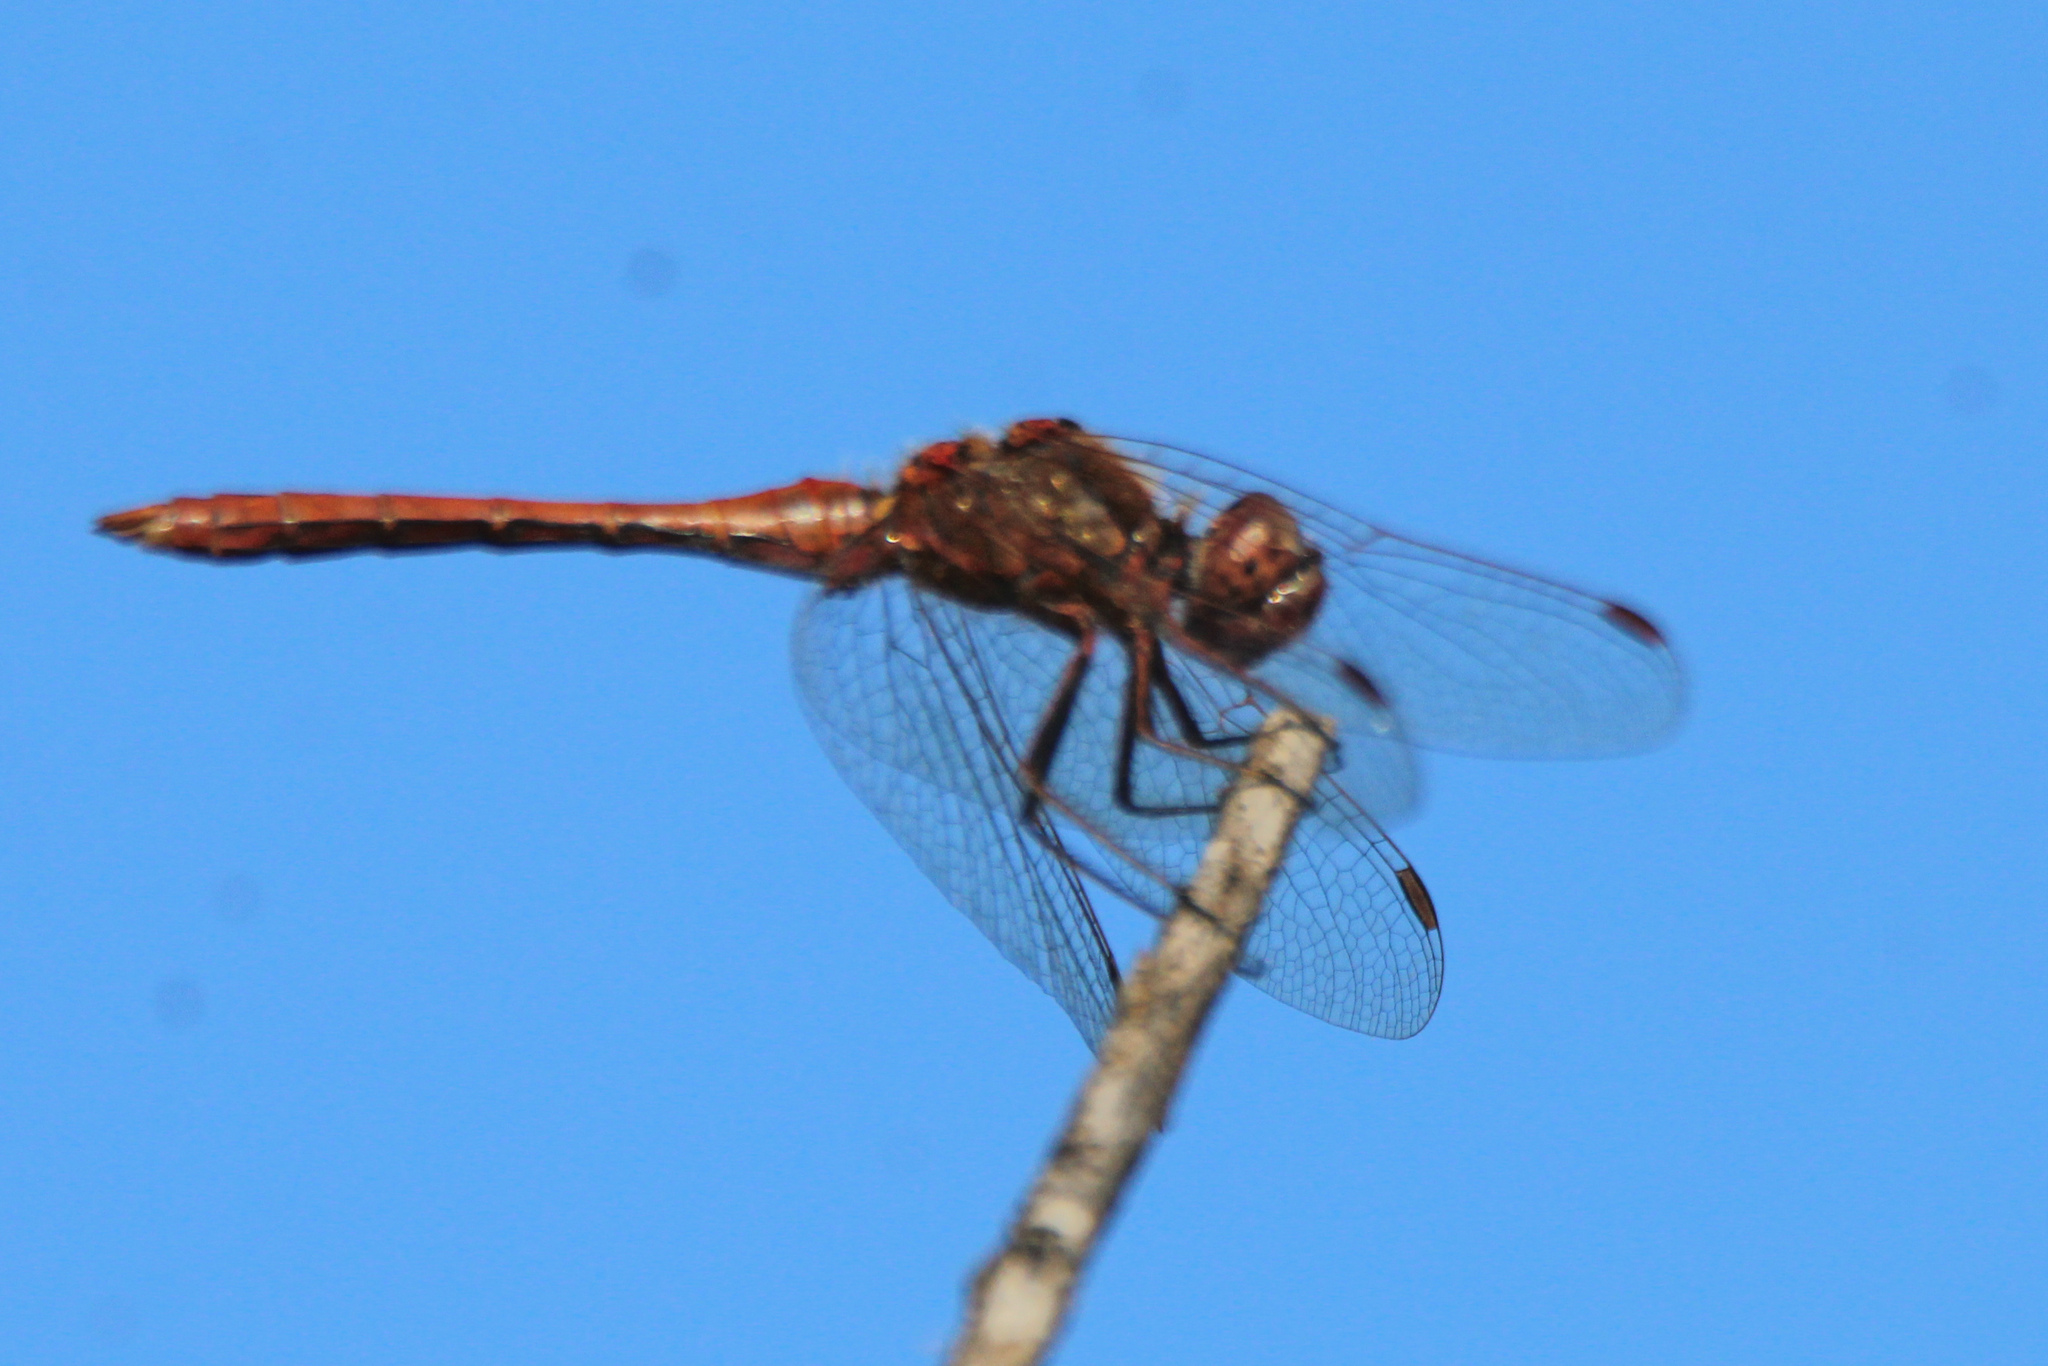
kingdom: Animalia
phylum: Arthropoda
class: Insecta
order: Odonata
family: Libellulidae
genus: Sympetrum
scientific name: Sympetrum vulgatum
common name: Vagrant darter
